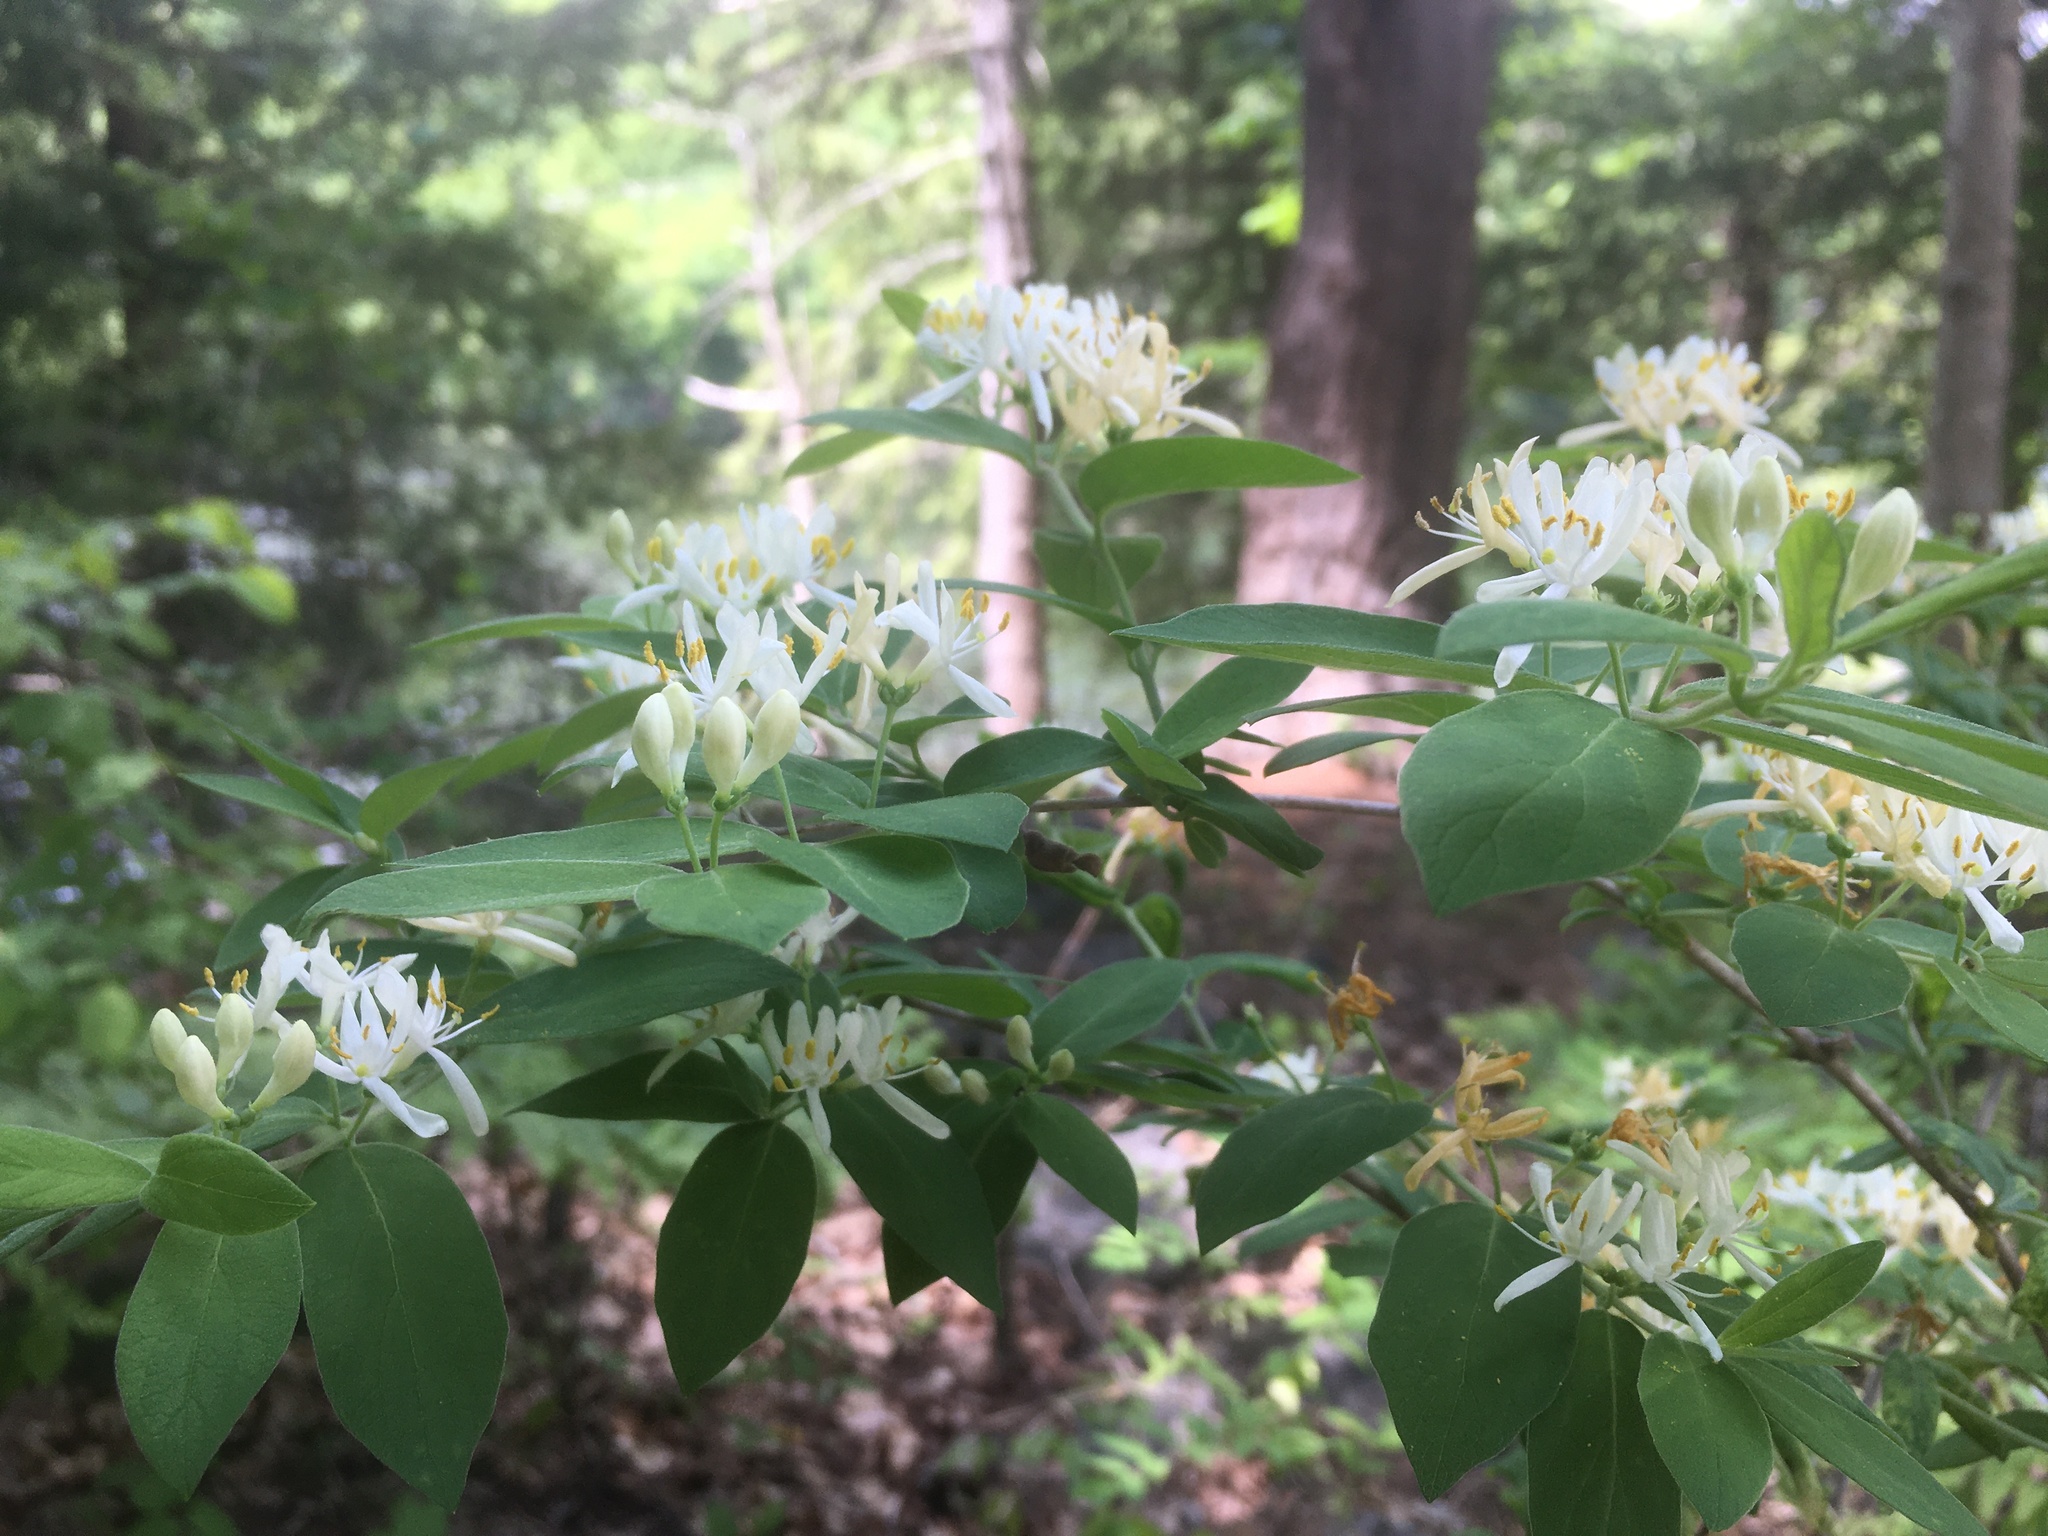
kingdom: Plantae
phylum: Tracheophyta
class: Magnoliopsida
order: Dipsacales
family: Caprifoliaceae
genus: Lonicera
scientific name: Lonicera morrowii
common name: Morrow's honeysuckle
